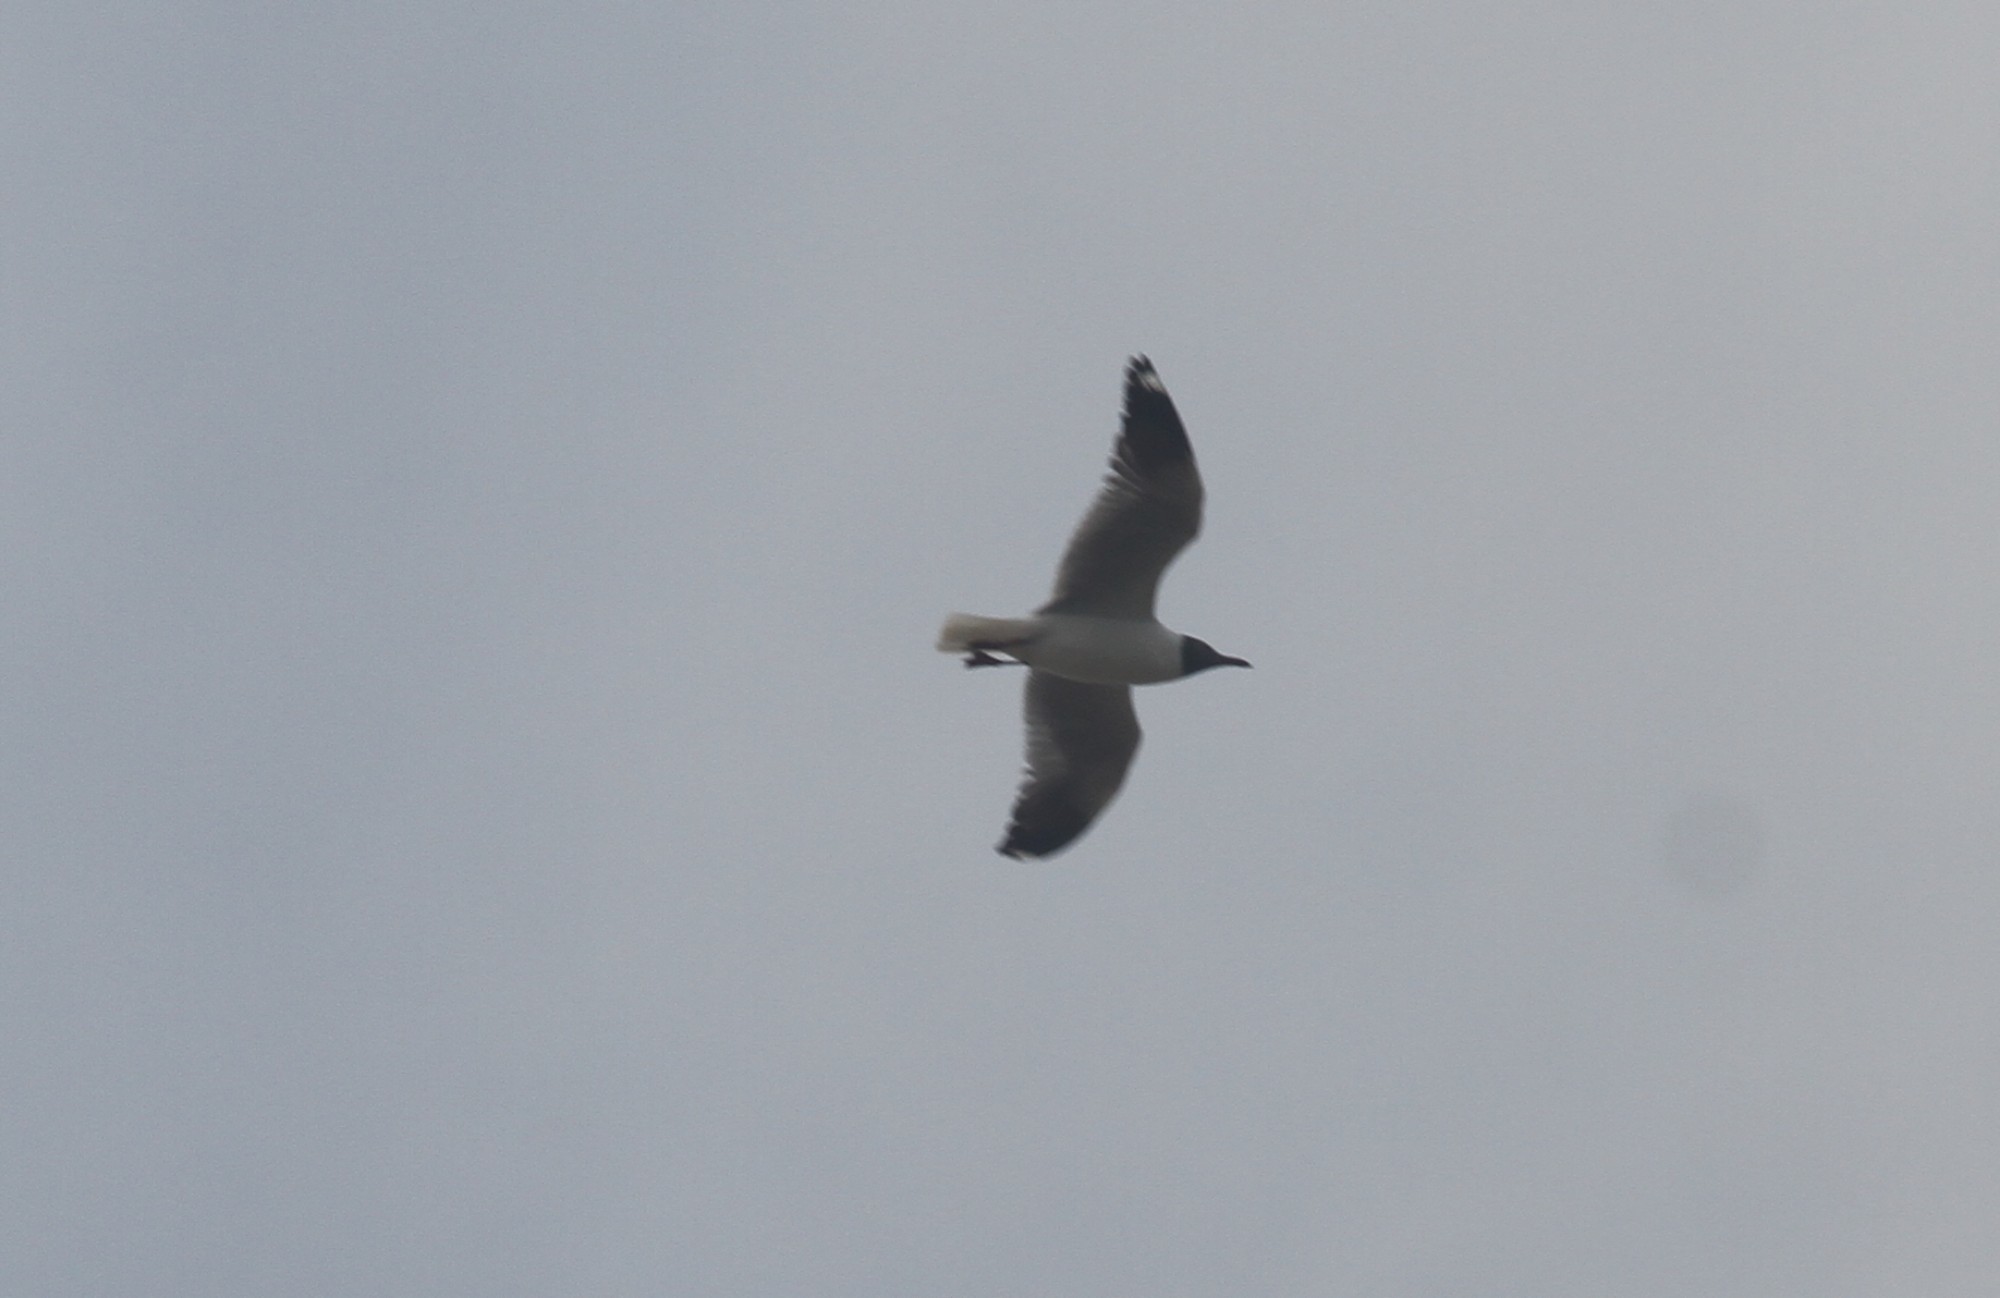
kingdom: Animalia
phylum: Chordata
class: Aves
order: Charadriiformes
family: Laridae
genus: Chroicocephalus
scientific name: Chroicocephalus brunnicephalus
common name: Brown-headed gull
